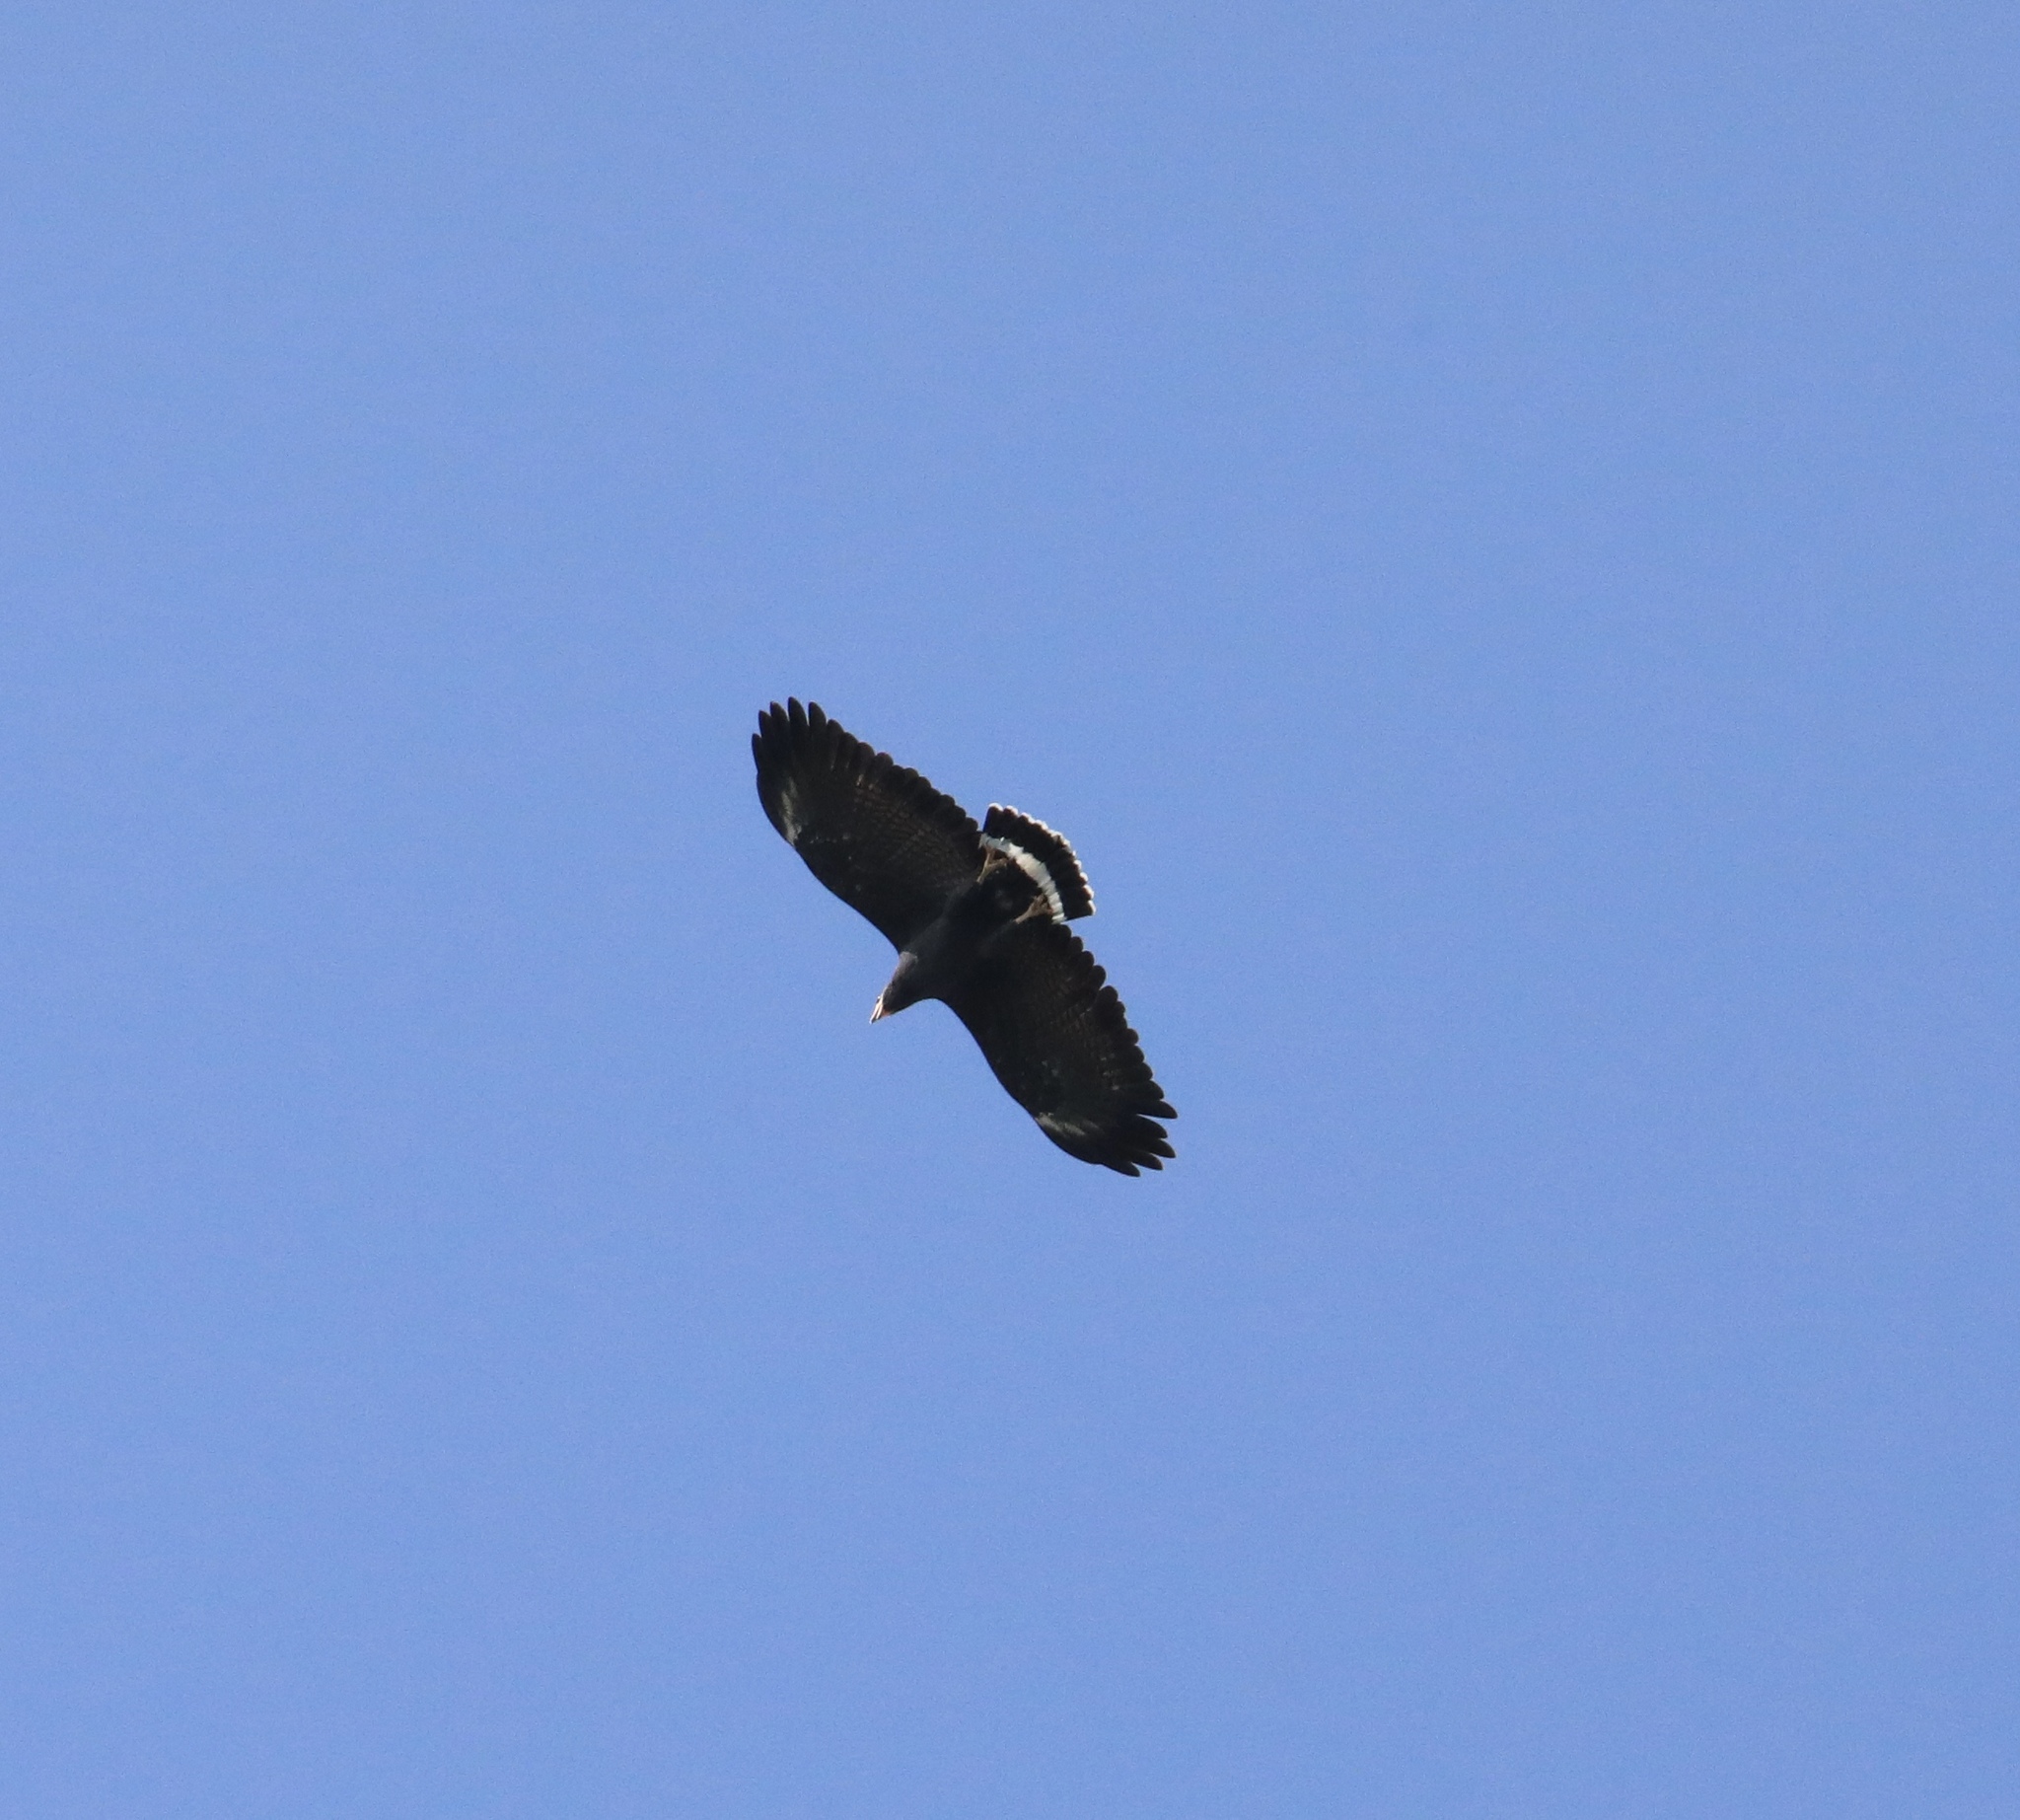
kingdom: Animalia
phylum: Chordata
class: Aves
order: Accipitriformes
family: Accipitridae
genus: Buteogallus
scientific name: Buteogallus anthracinus
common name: Common black hawk
